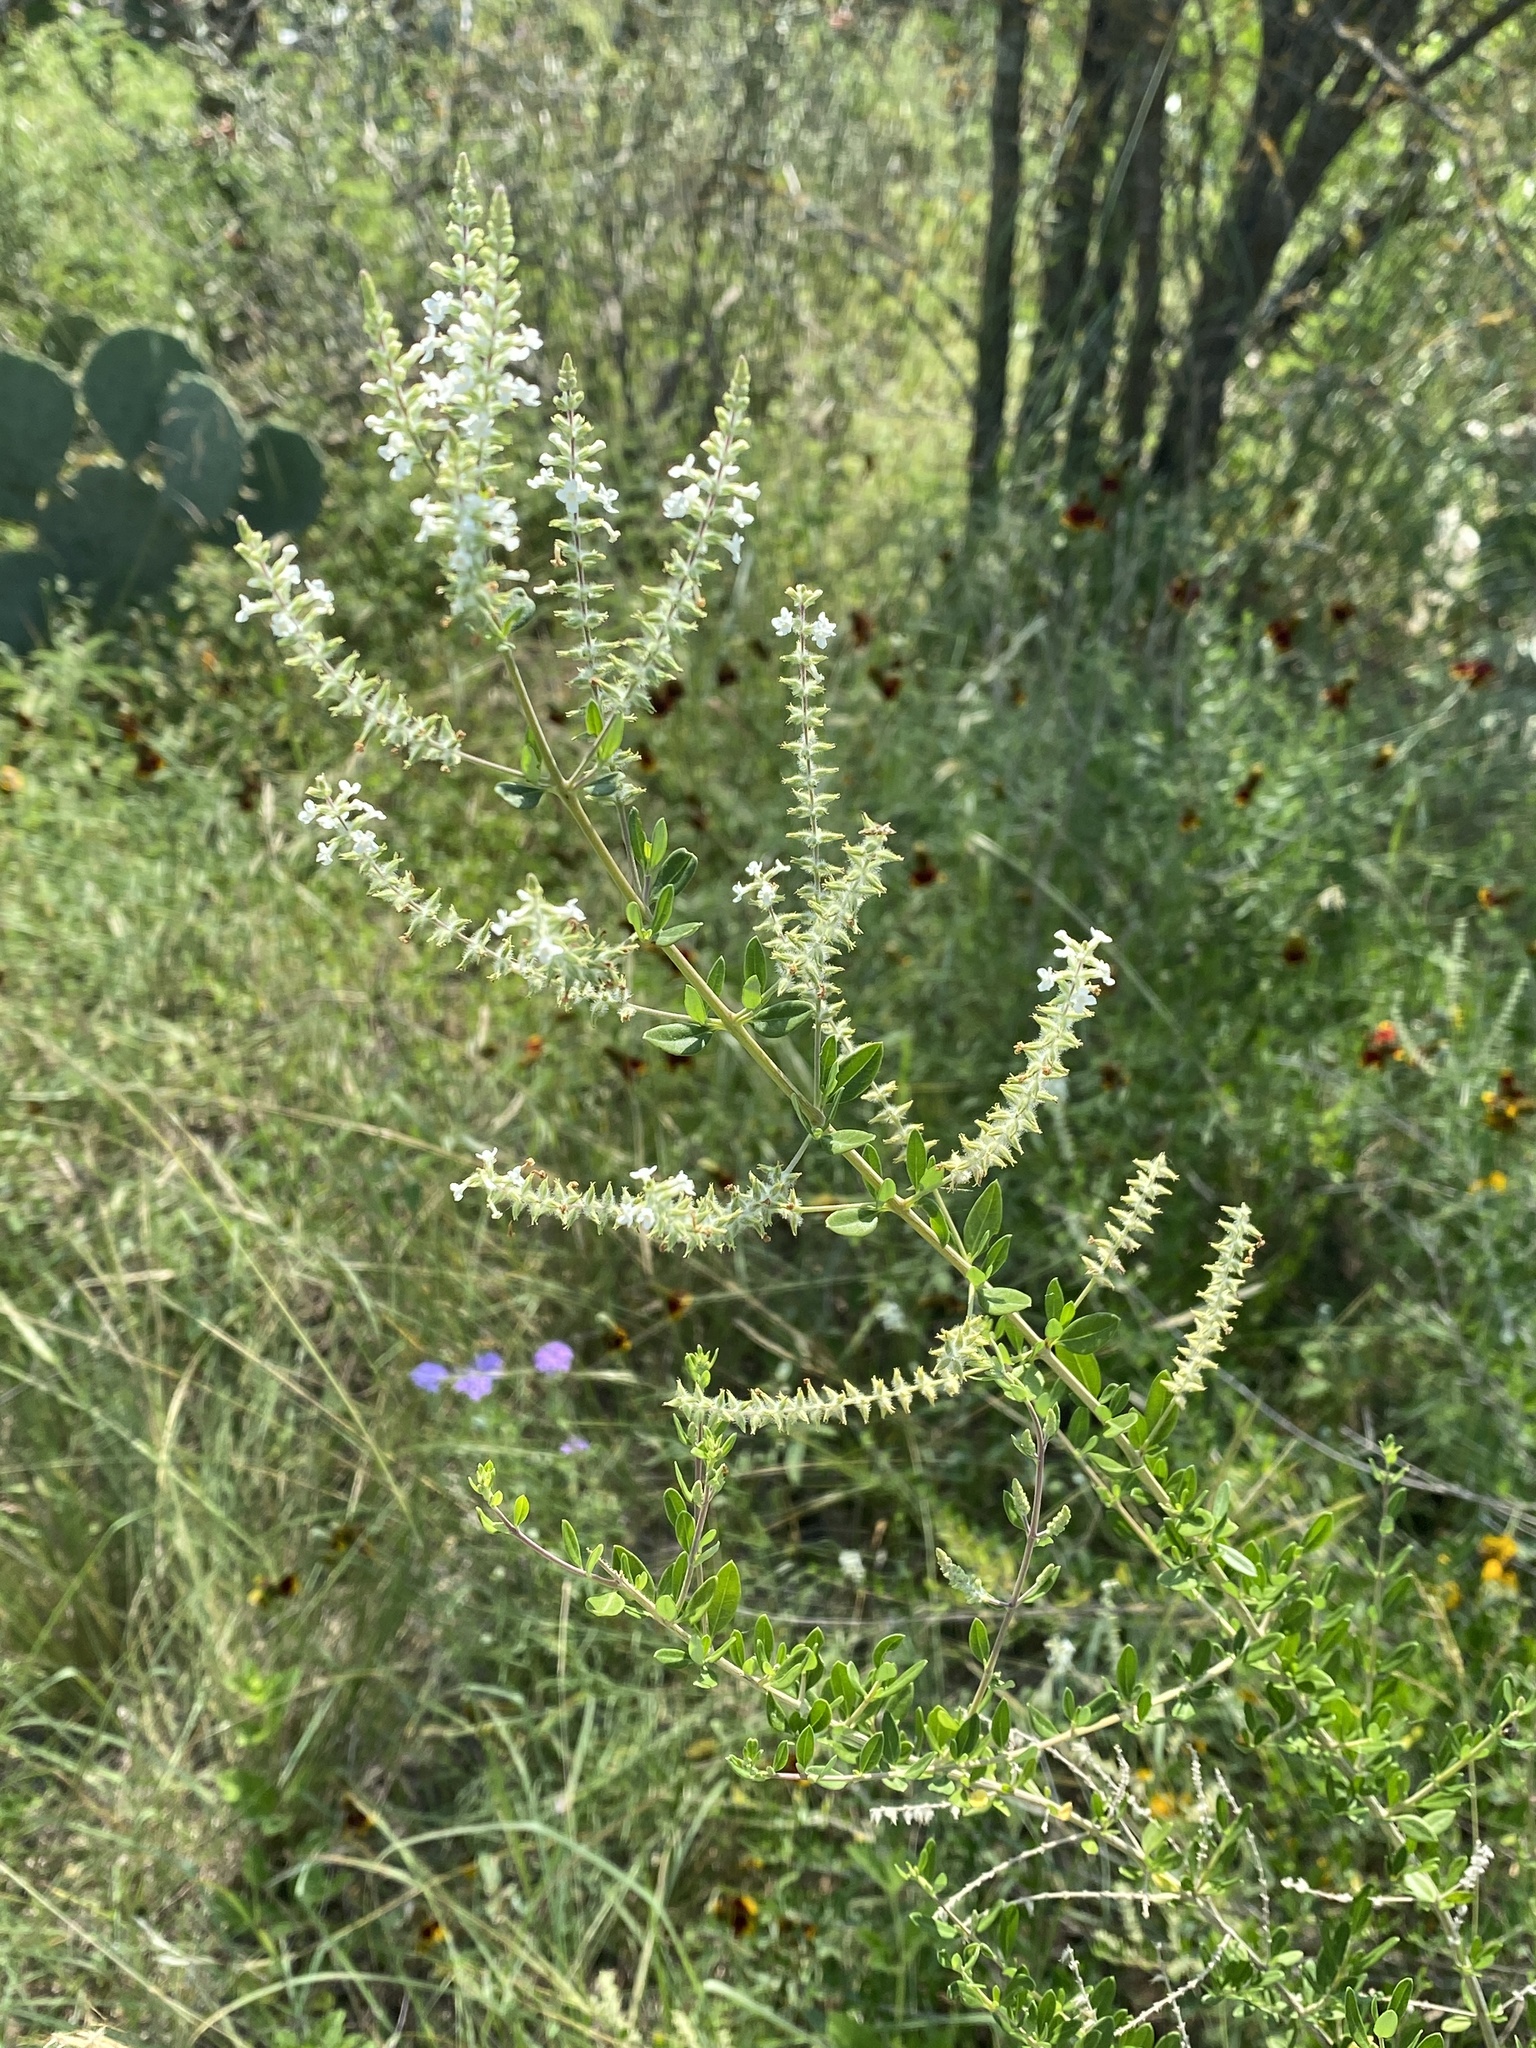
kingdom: Plantae
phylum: Tracheophyta
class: Magnoliopsida
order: Lamiales
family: Verbenaceae
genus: Aloysia
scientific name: Aloysia gratissima
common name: Common bee-brush
